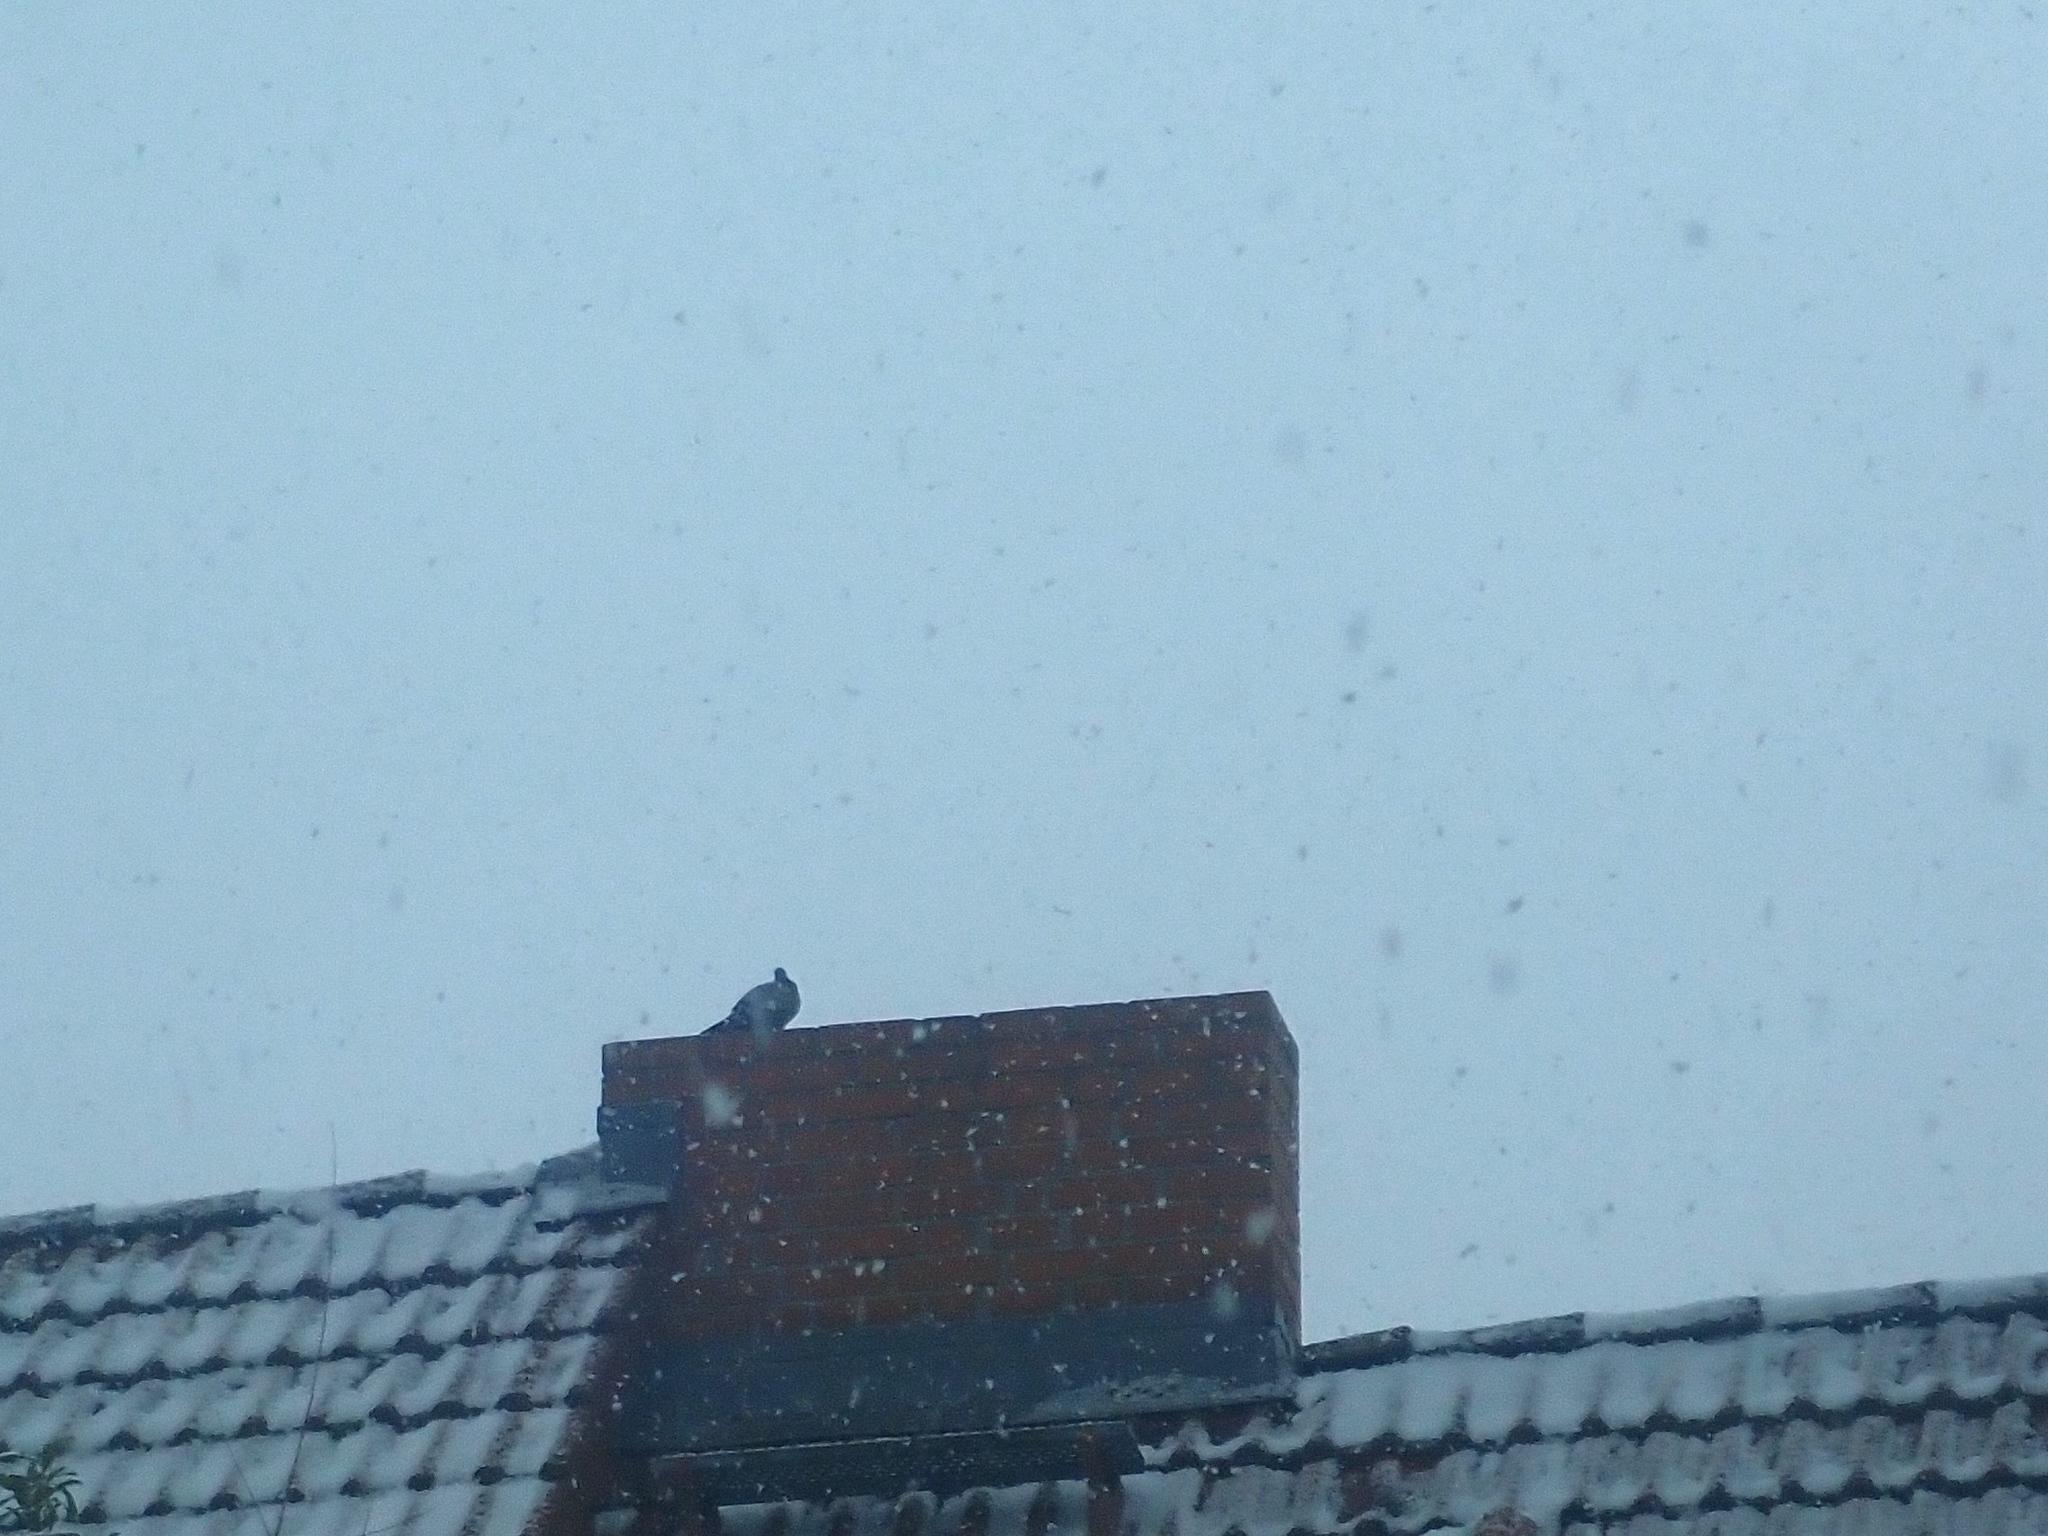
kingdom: Animalia
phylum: Chordata
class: Aves
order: Columbiformes
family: Columbidae
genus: Columba
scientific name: Columba livia
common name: Rock pigeon
